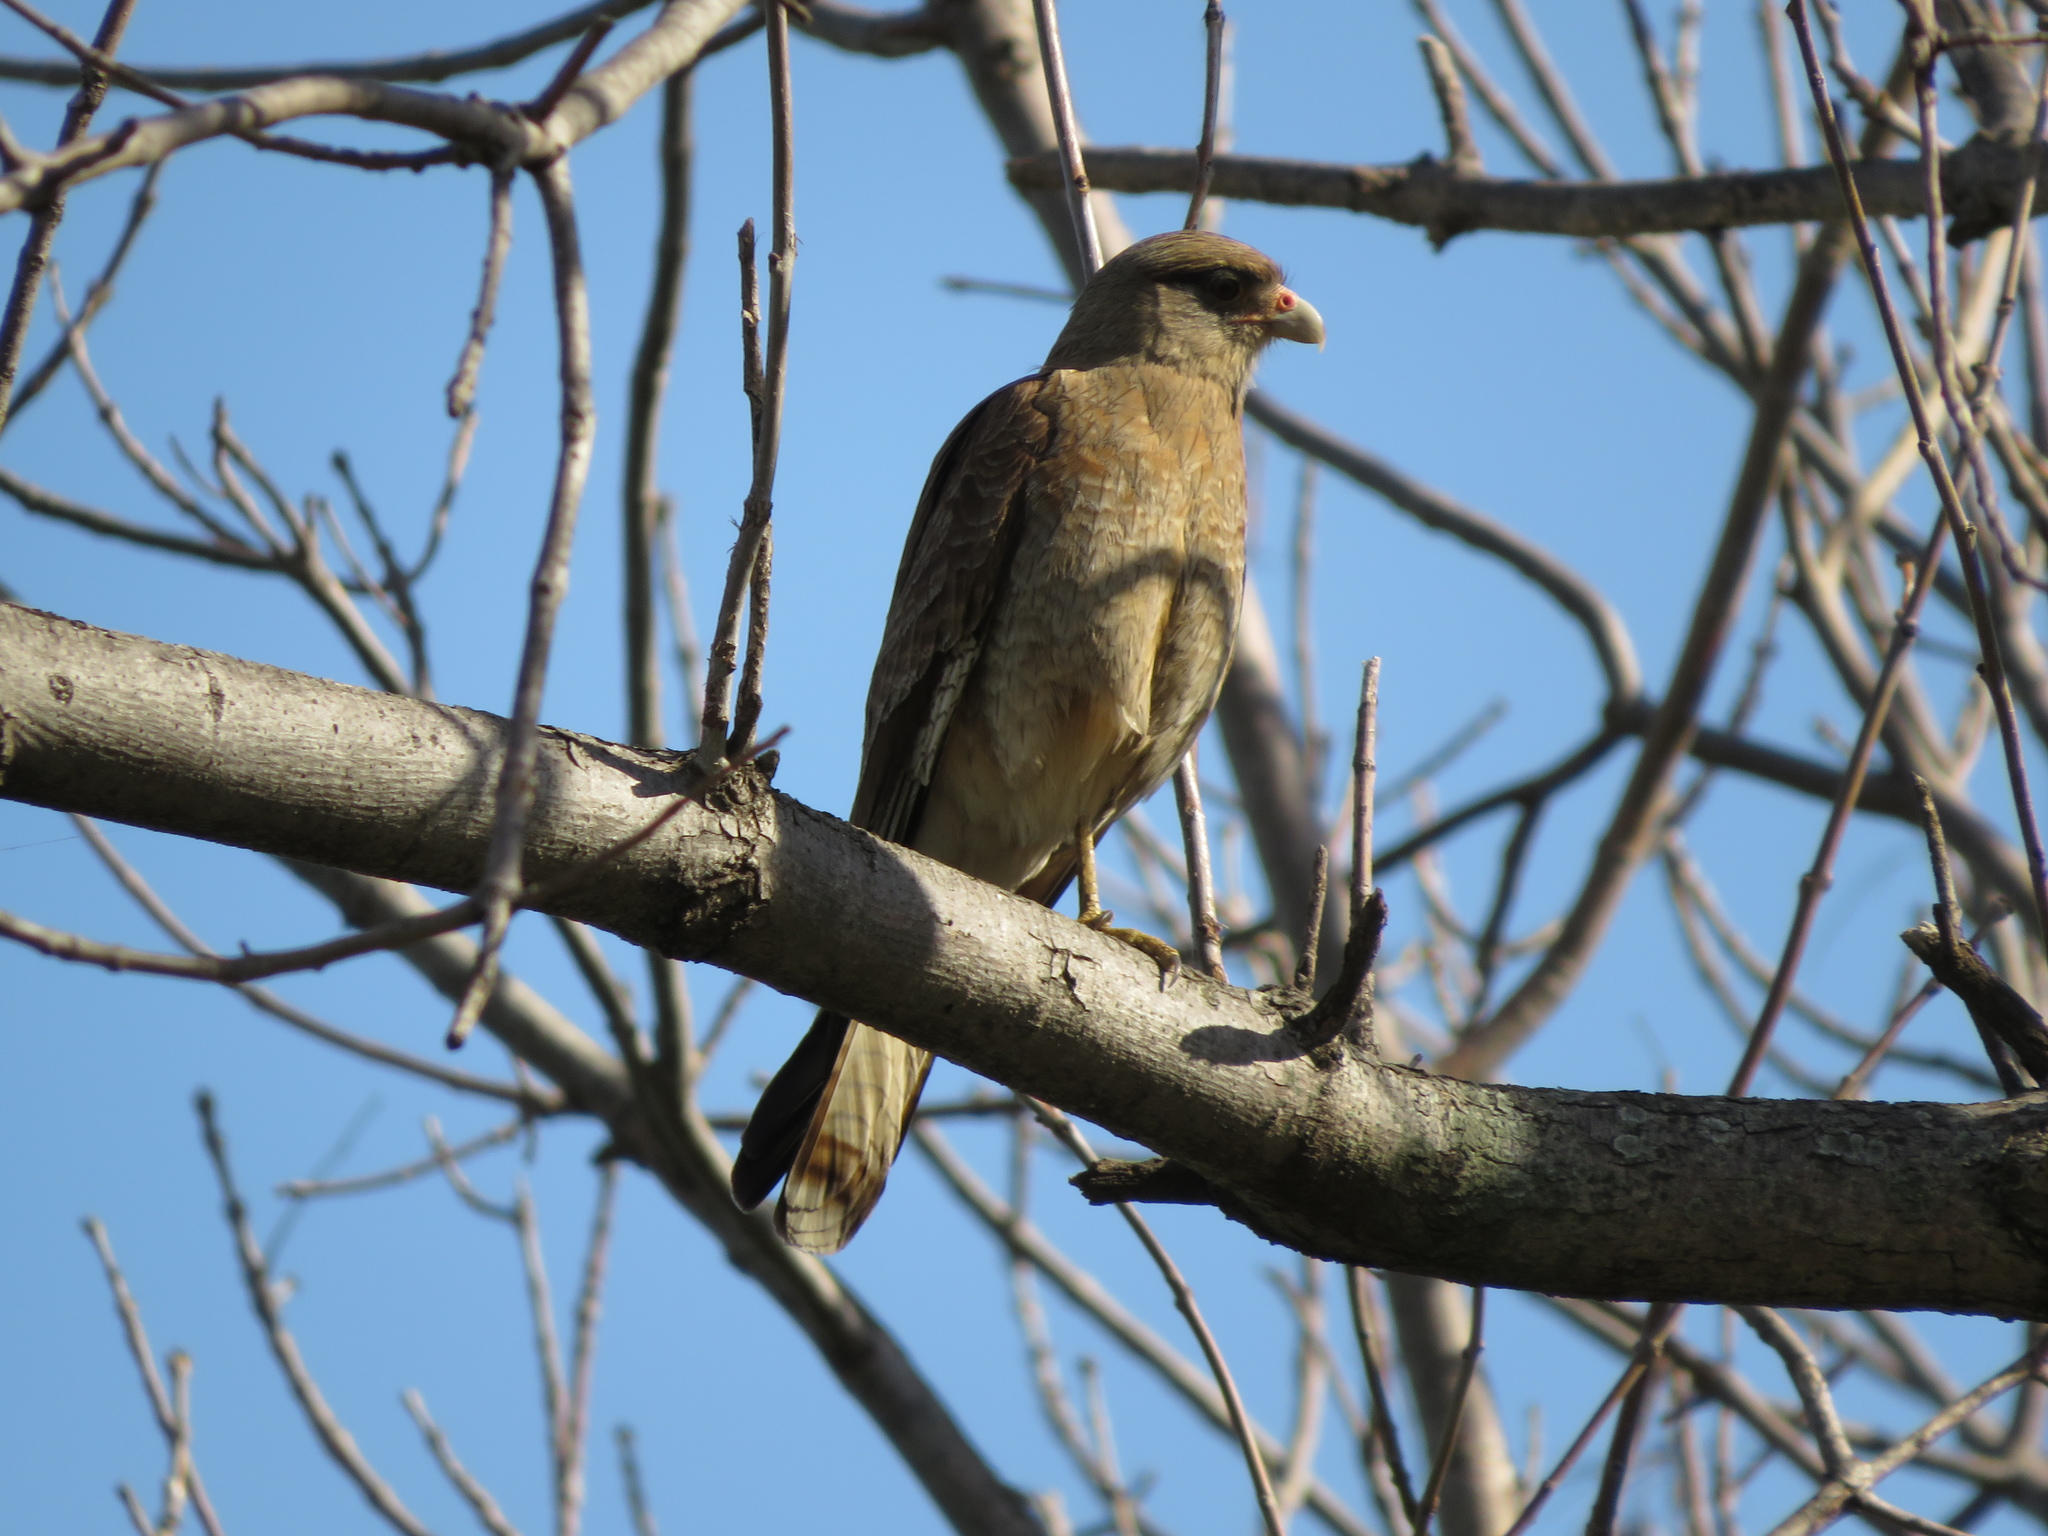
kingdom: Animalia
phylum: Chordata
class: Aves
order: Falconiformes
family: Falconidae
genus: Daptrius
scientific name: Daptrius
